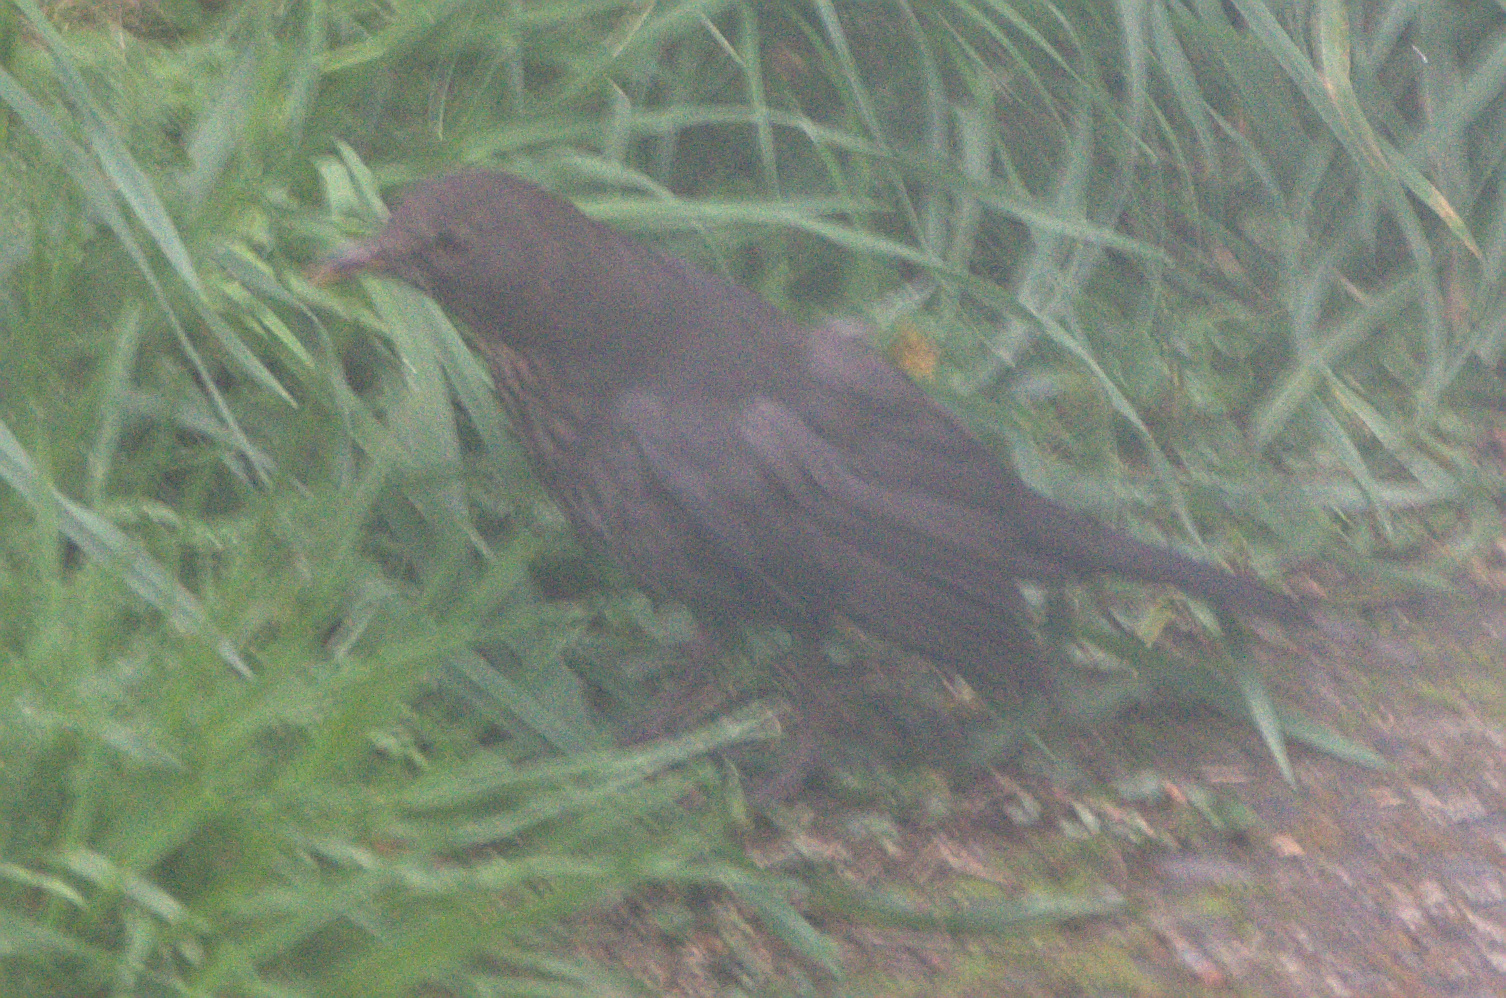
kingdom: Animalia
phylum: Chordata
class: Aves
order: Passeriformes
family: Turdidae
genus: Turdus
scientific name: Turdus merula
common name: Common blackbird
